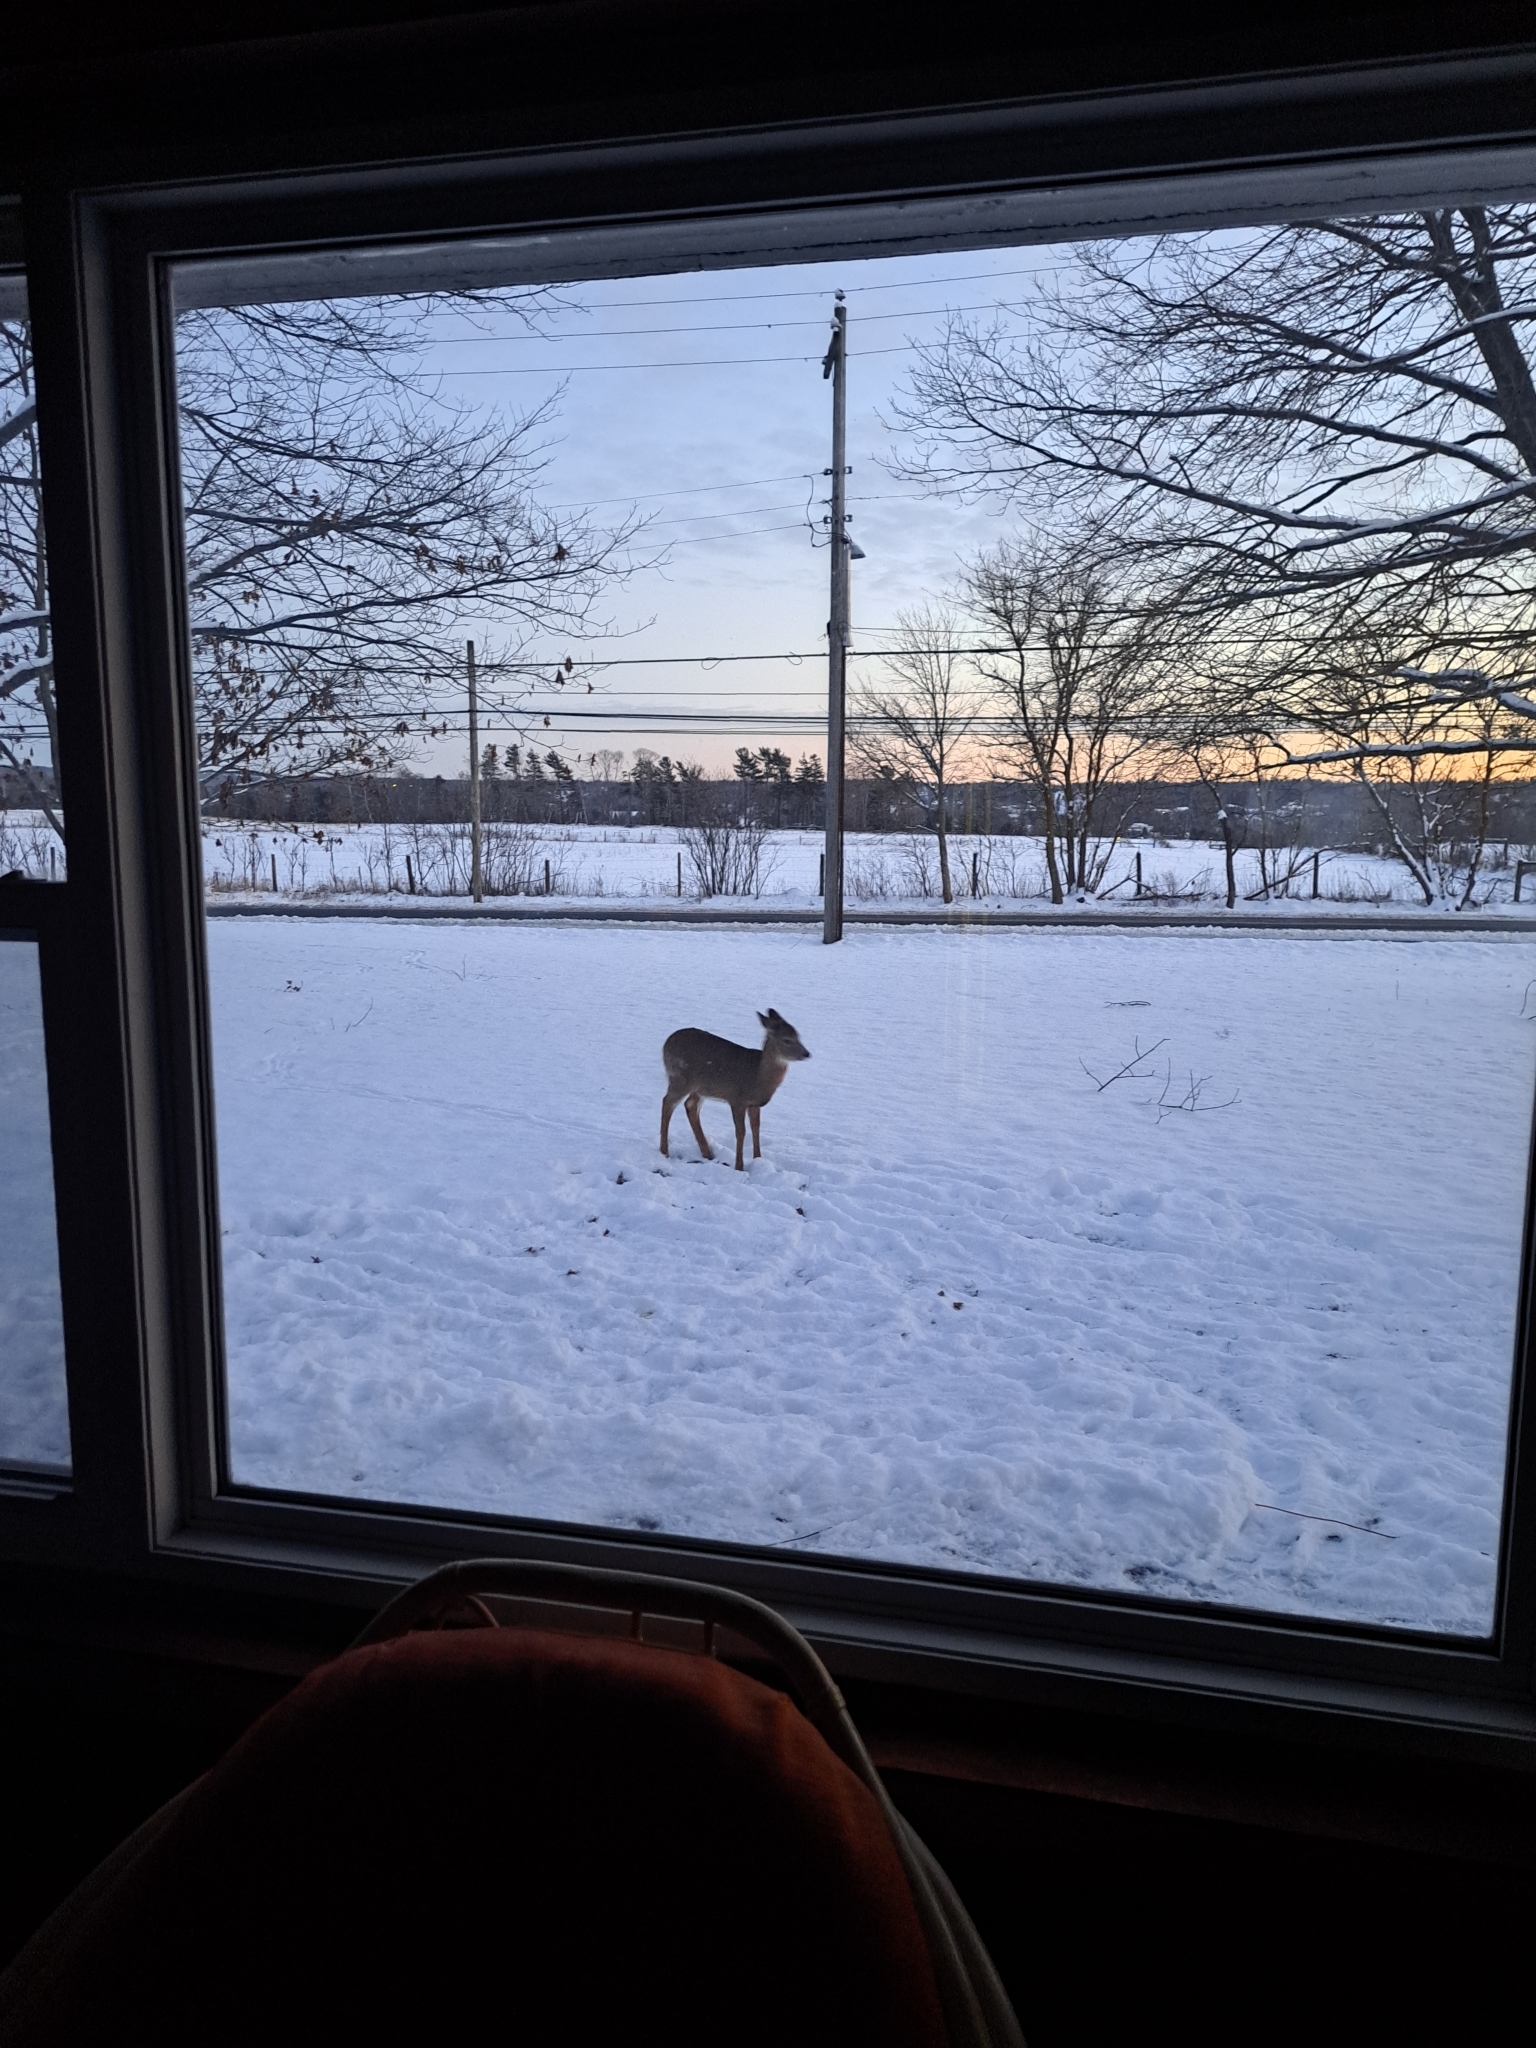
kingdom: Animalia
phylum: Chordata
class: Mammalia
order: Artiodactyla
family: Cervidae
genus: Odocoileus
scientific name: Odocoileus virginianus
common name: White-tailed deer
